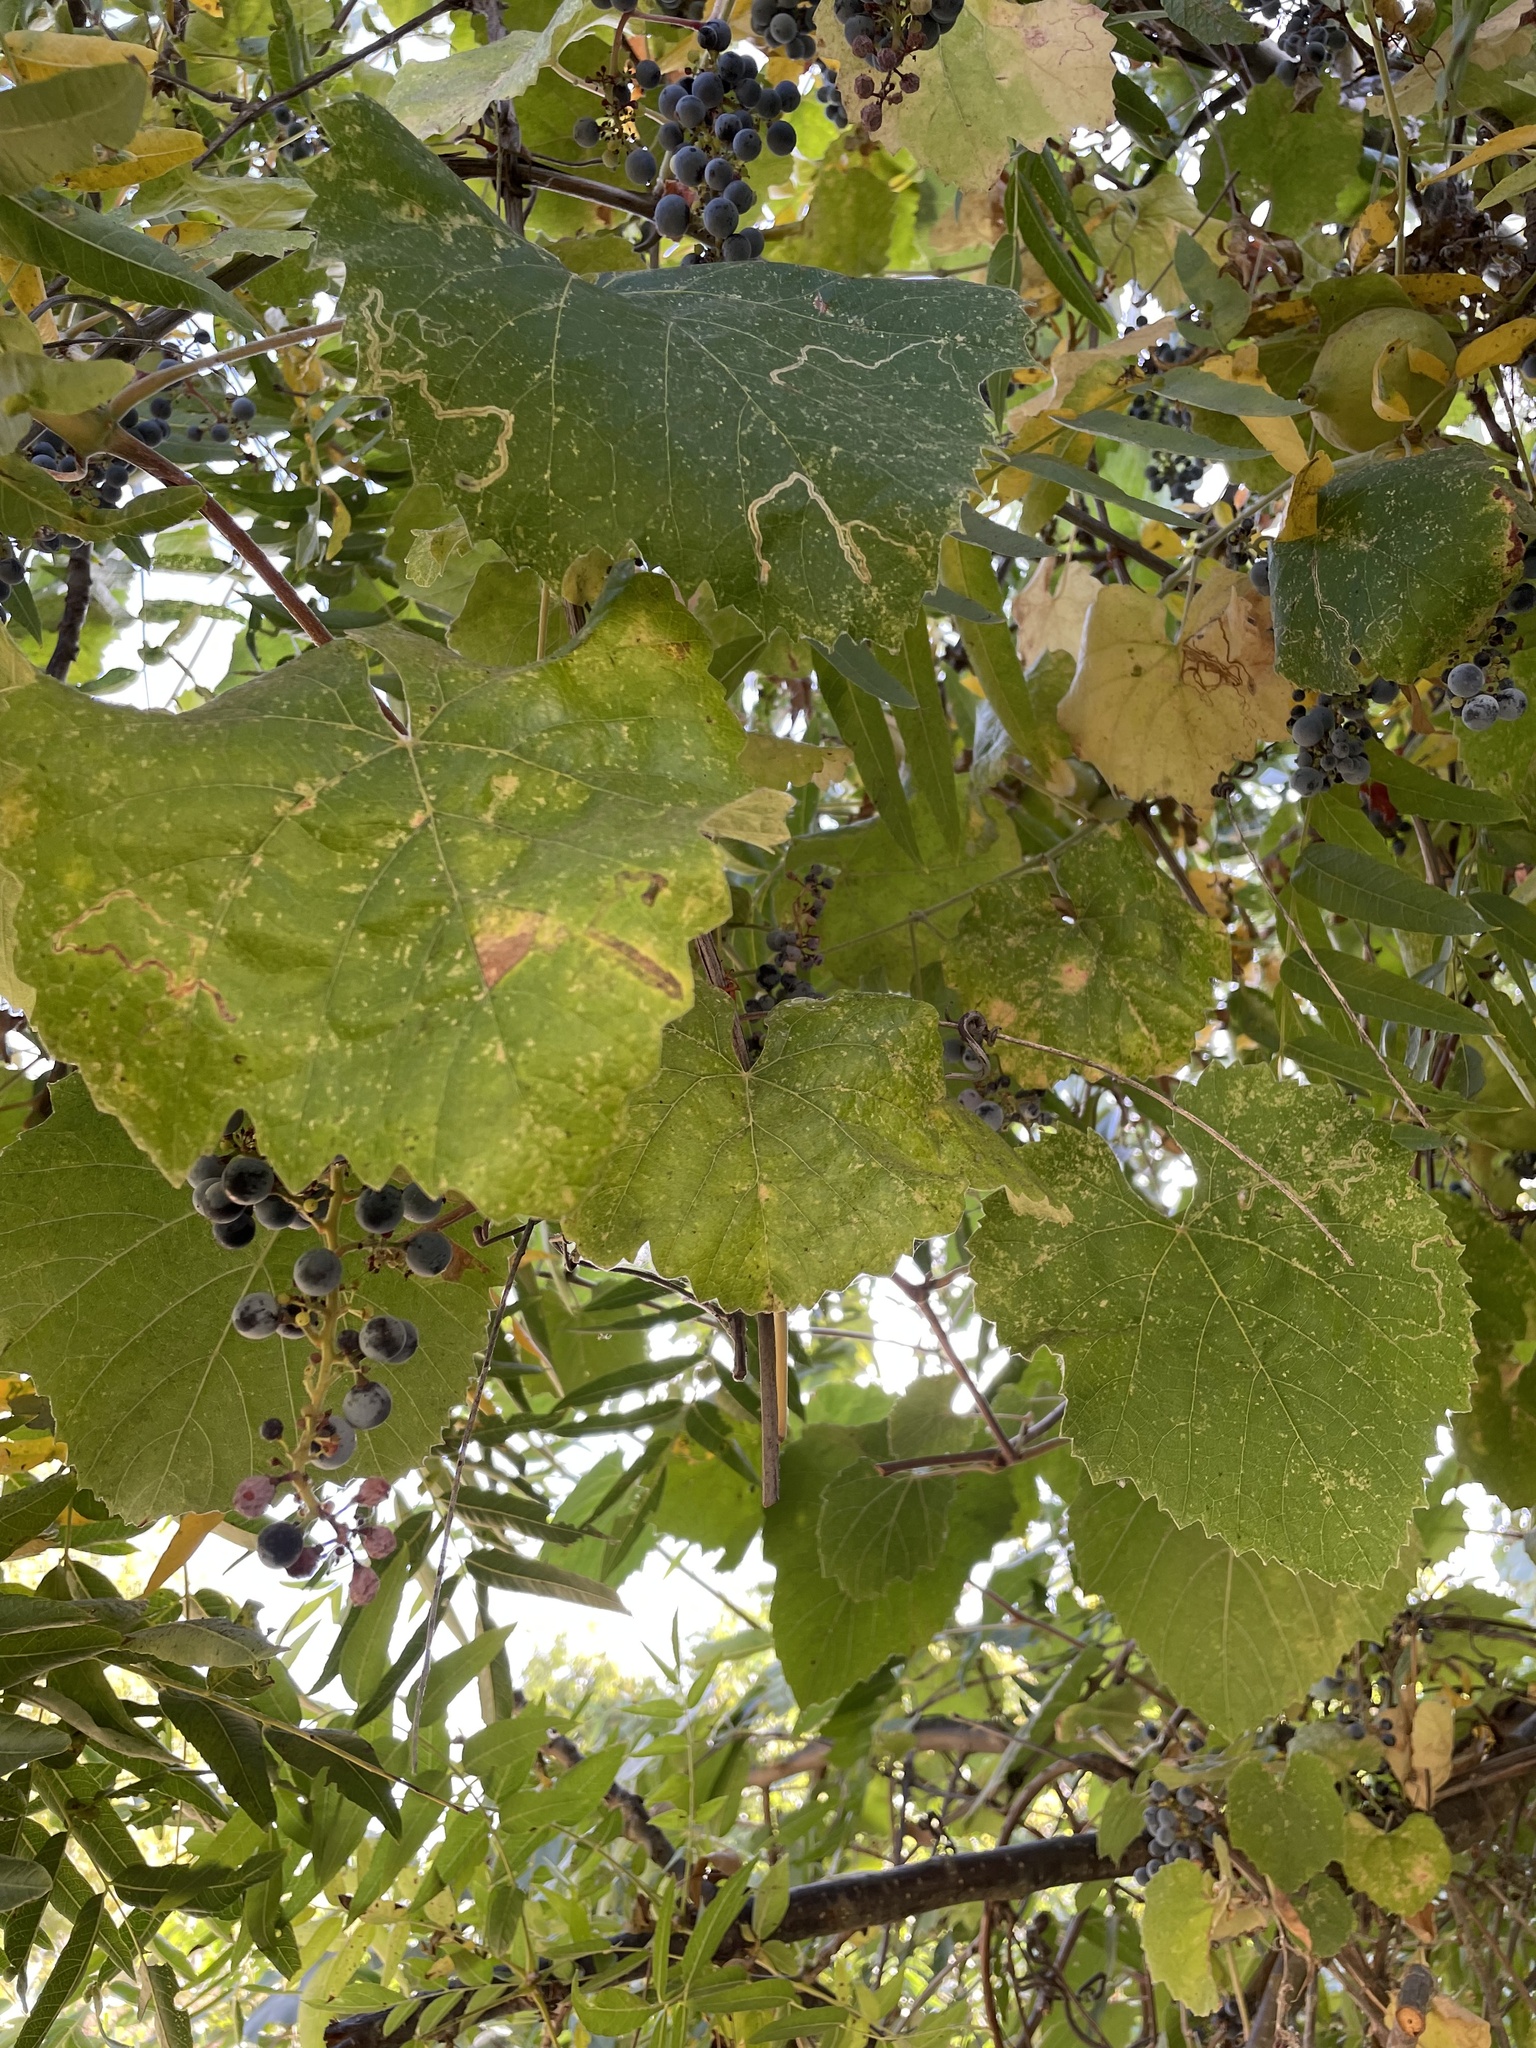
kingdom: Plantae
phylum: Tracheophyta
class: Magnoliopsida
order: Vitales
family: Vitaceae
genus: Vitis
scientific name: Vitis californica
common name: California wild grape
